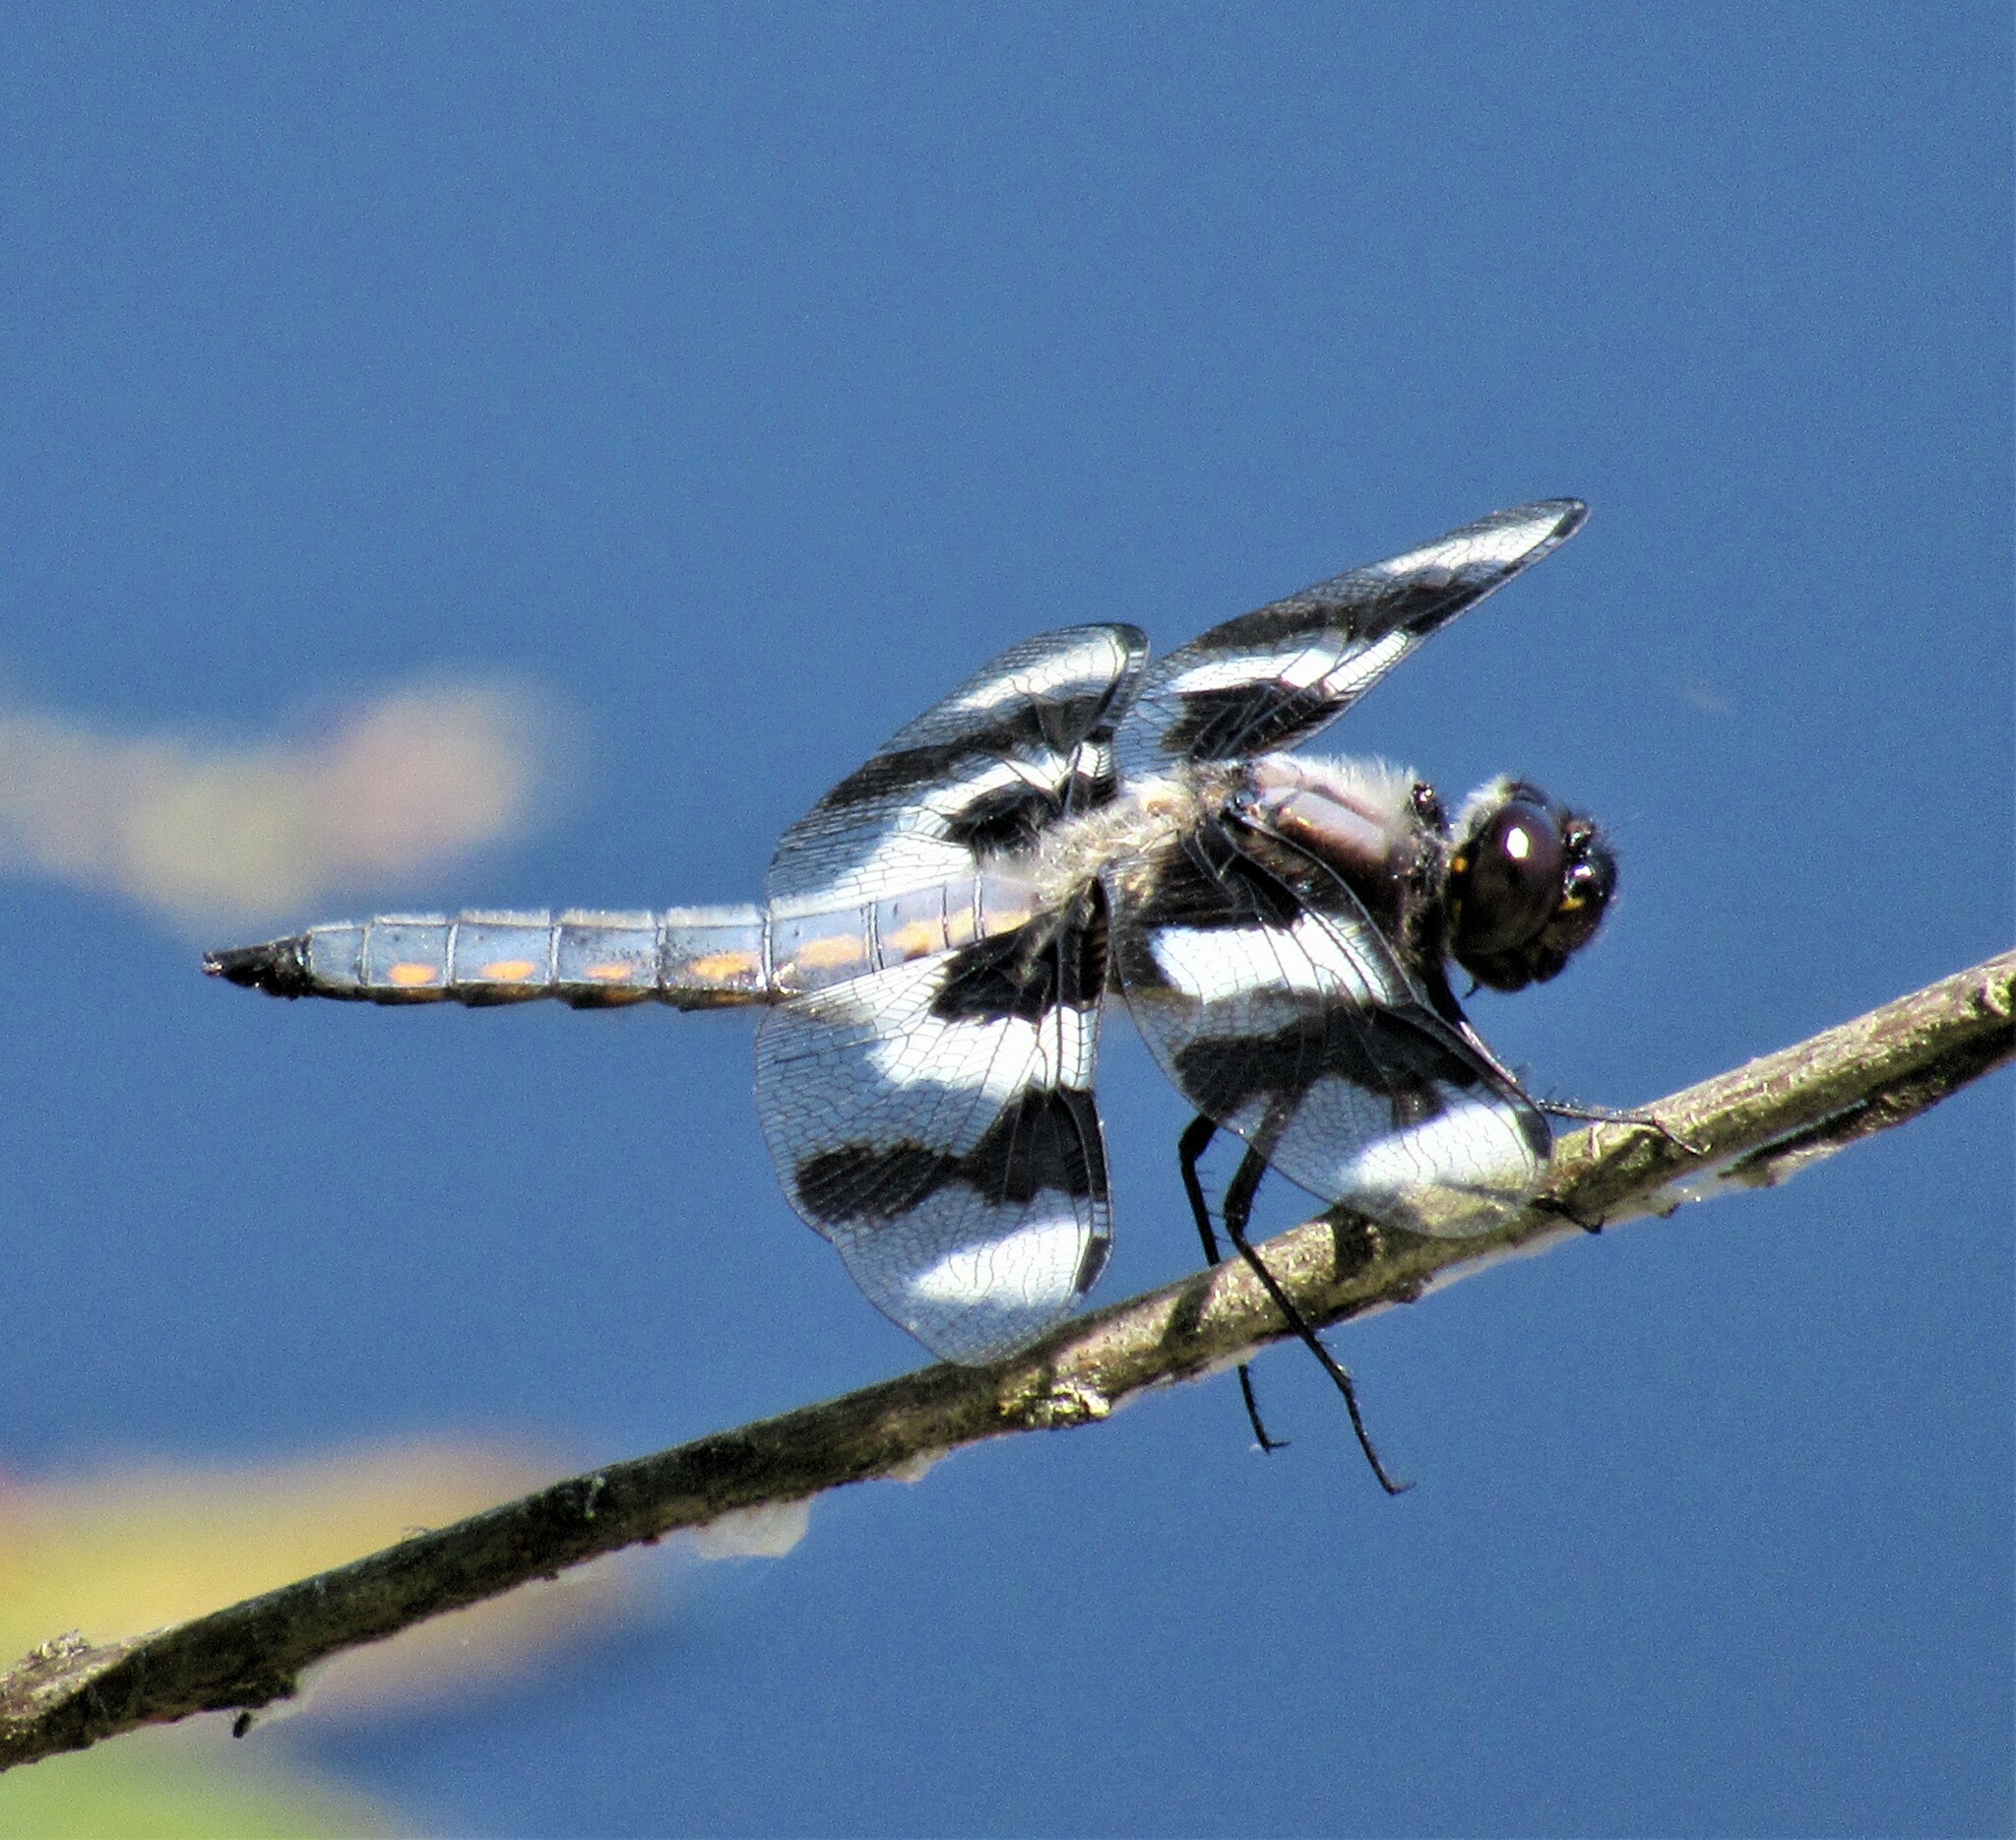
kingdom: Animalia
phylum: Arthropoda
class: Insecta
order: Odonata
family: Libellulidae
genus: Libellula
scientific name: Libellula forensis
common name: Eight-spotted skimmer
